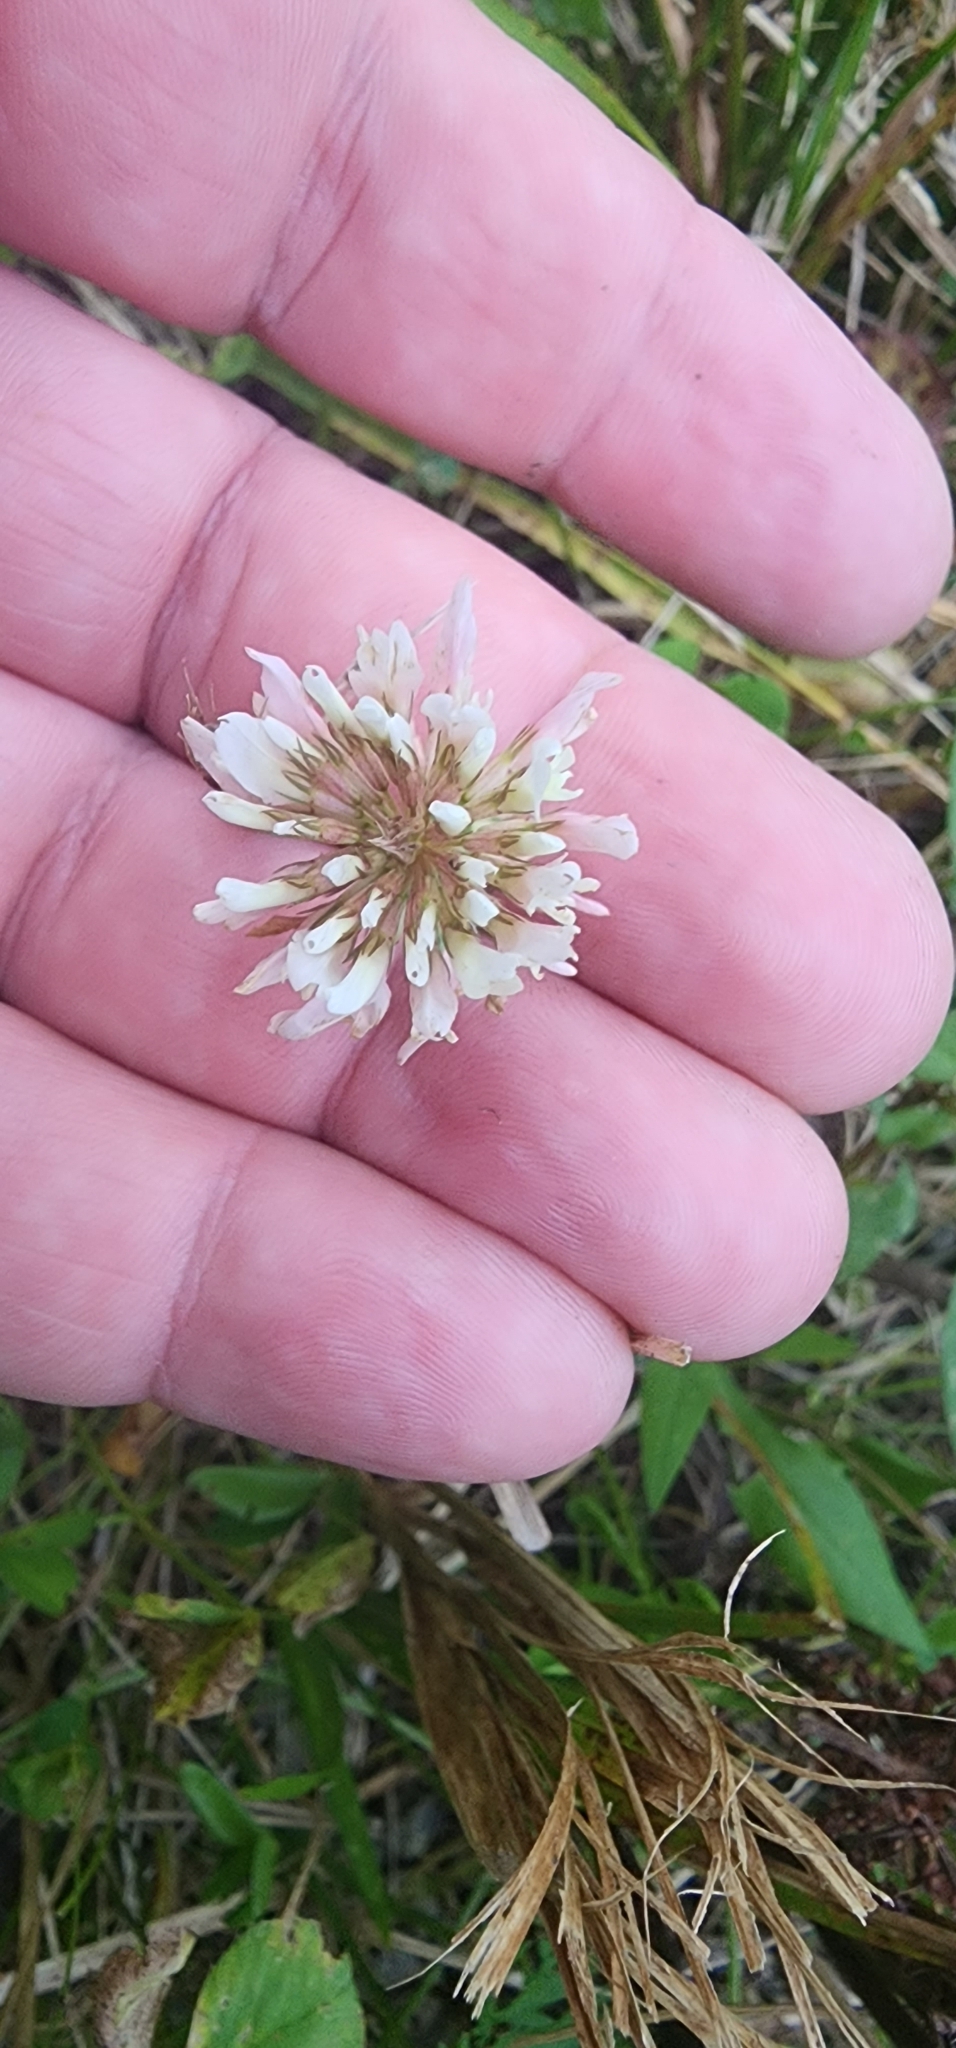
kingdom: Plantae
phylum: Tracheophyta
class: Magnoliopsida
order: Fabales
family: Fabaceae
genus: Trifolium
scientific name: Trifolium repens
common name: White clover
